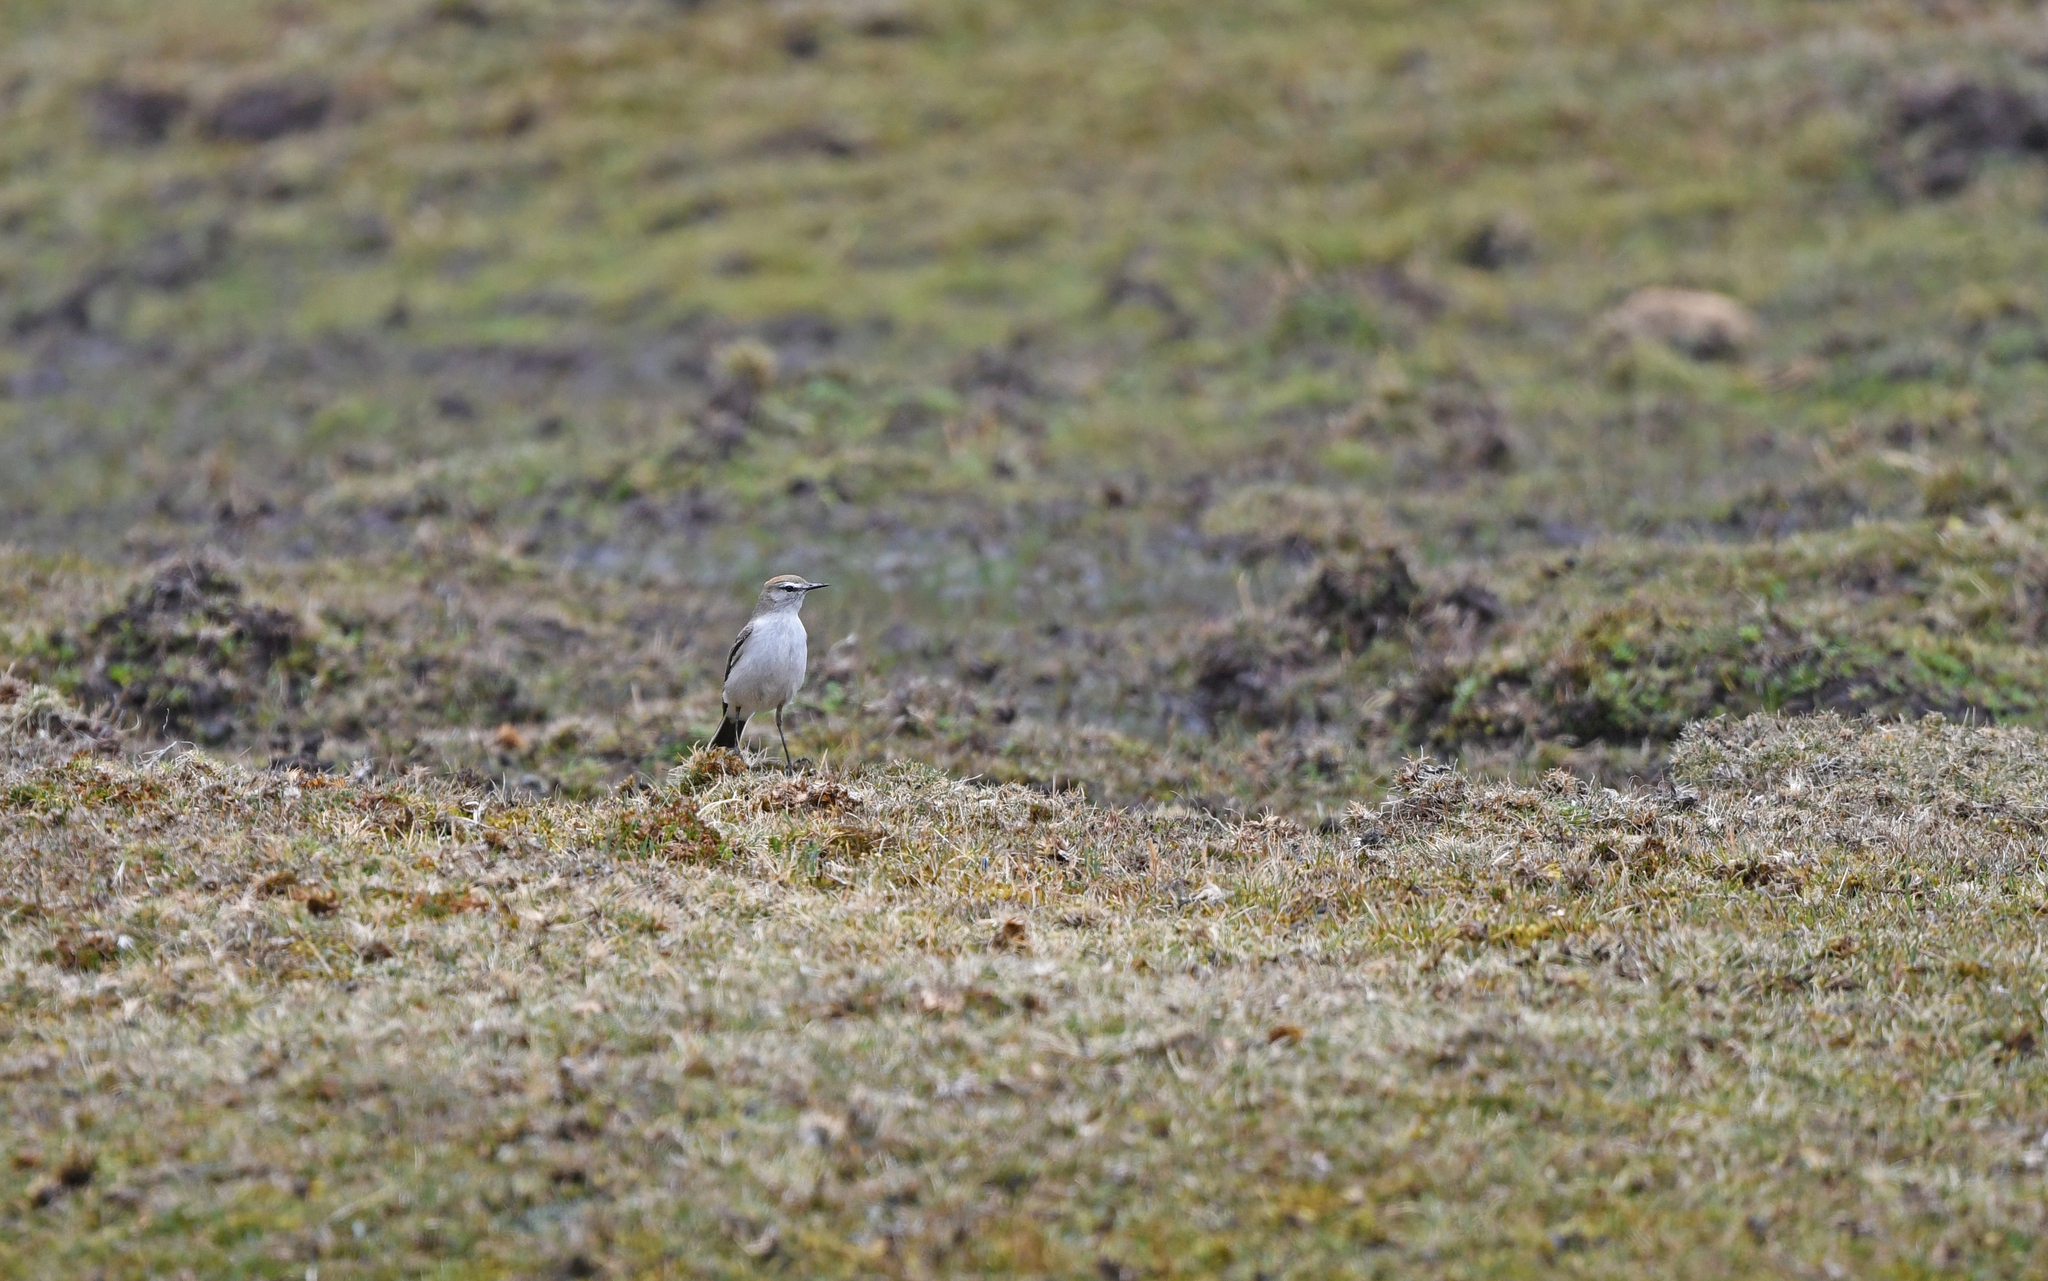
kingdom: Animalia
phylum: Chordata
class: Aves
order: Passeriformes
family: Tyrannidae
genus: Muscisaxicola
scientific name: Muscisaxicola albilora
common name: White-browed ground tyrant
